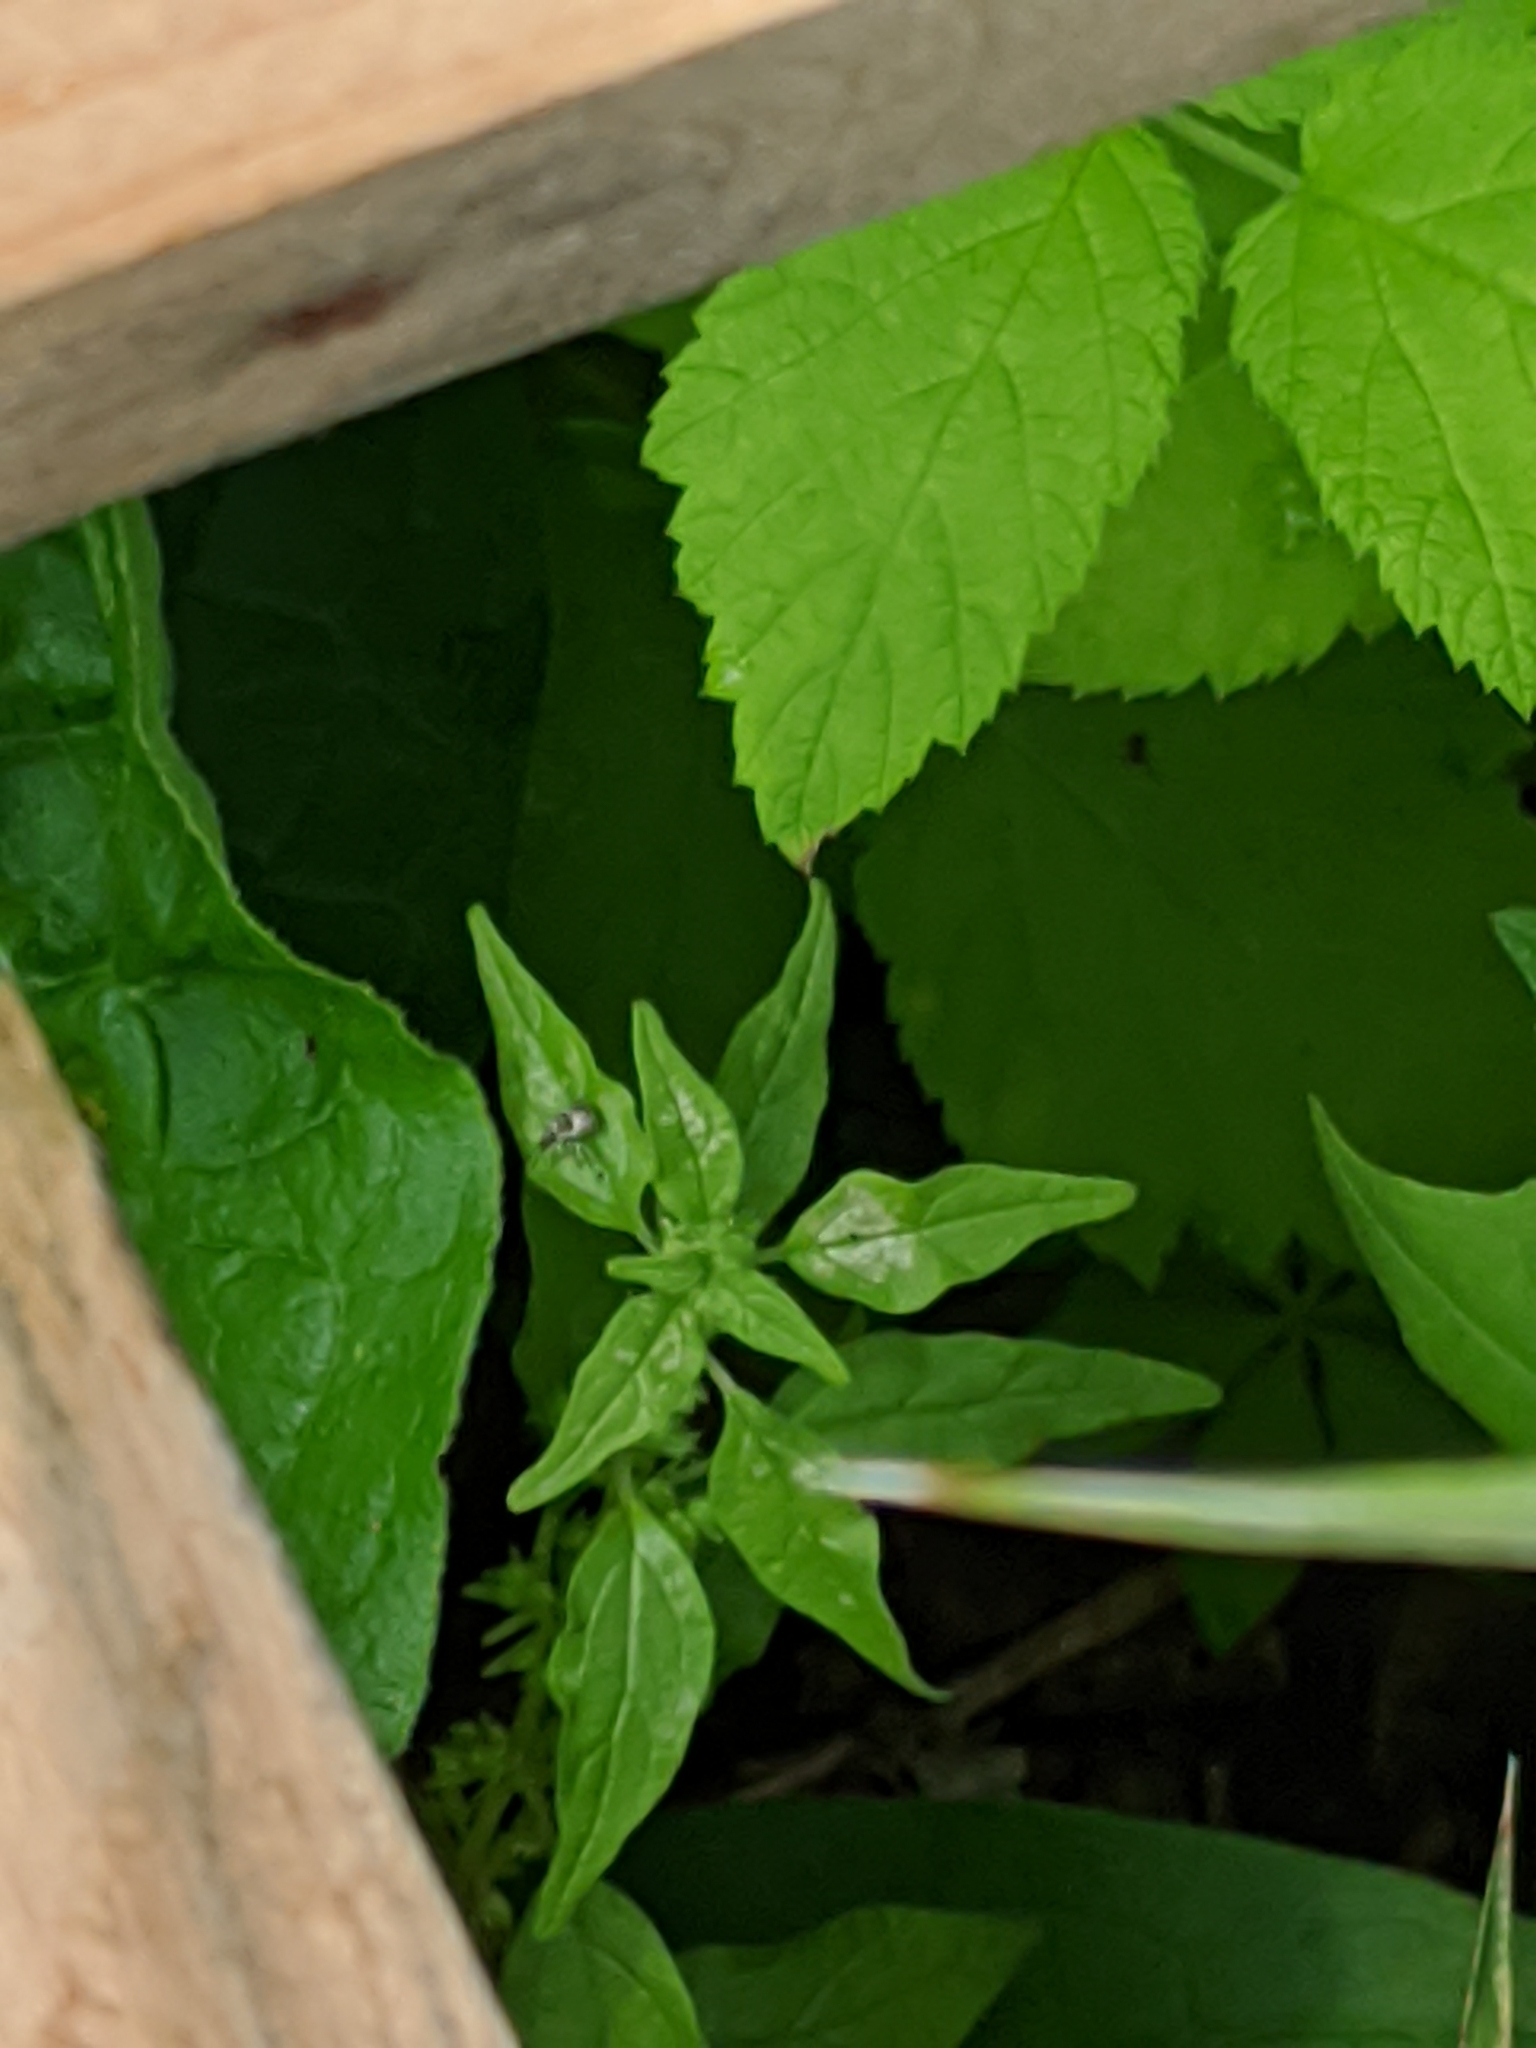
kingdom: Plantae
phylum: Tracheophyta
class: Magnoliopsida
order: Rosales
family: Urticaceae
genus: Parietaria
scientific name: Parietaria pensylvanica
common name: Pennsylvania pellitory
